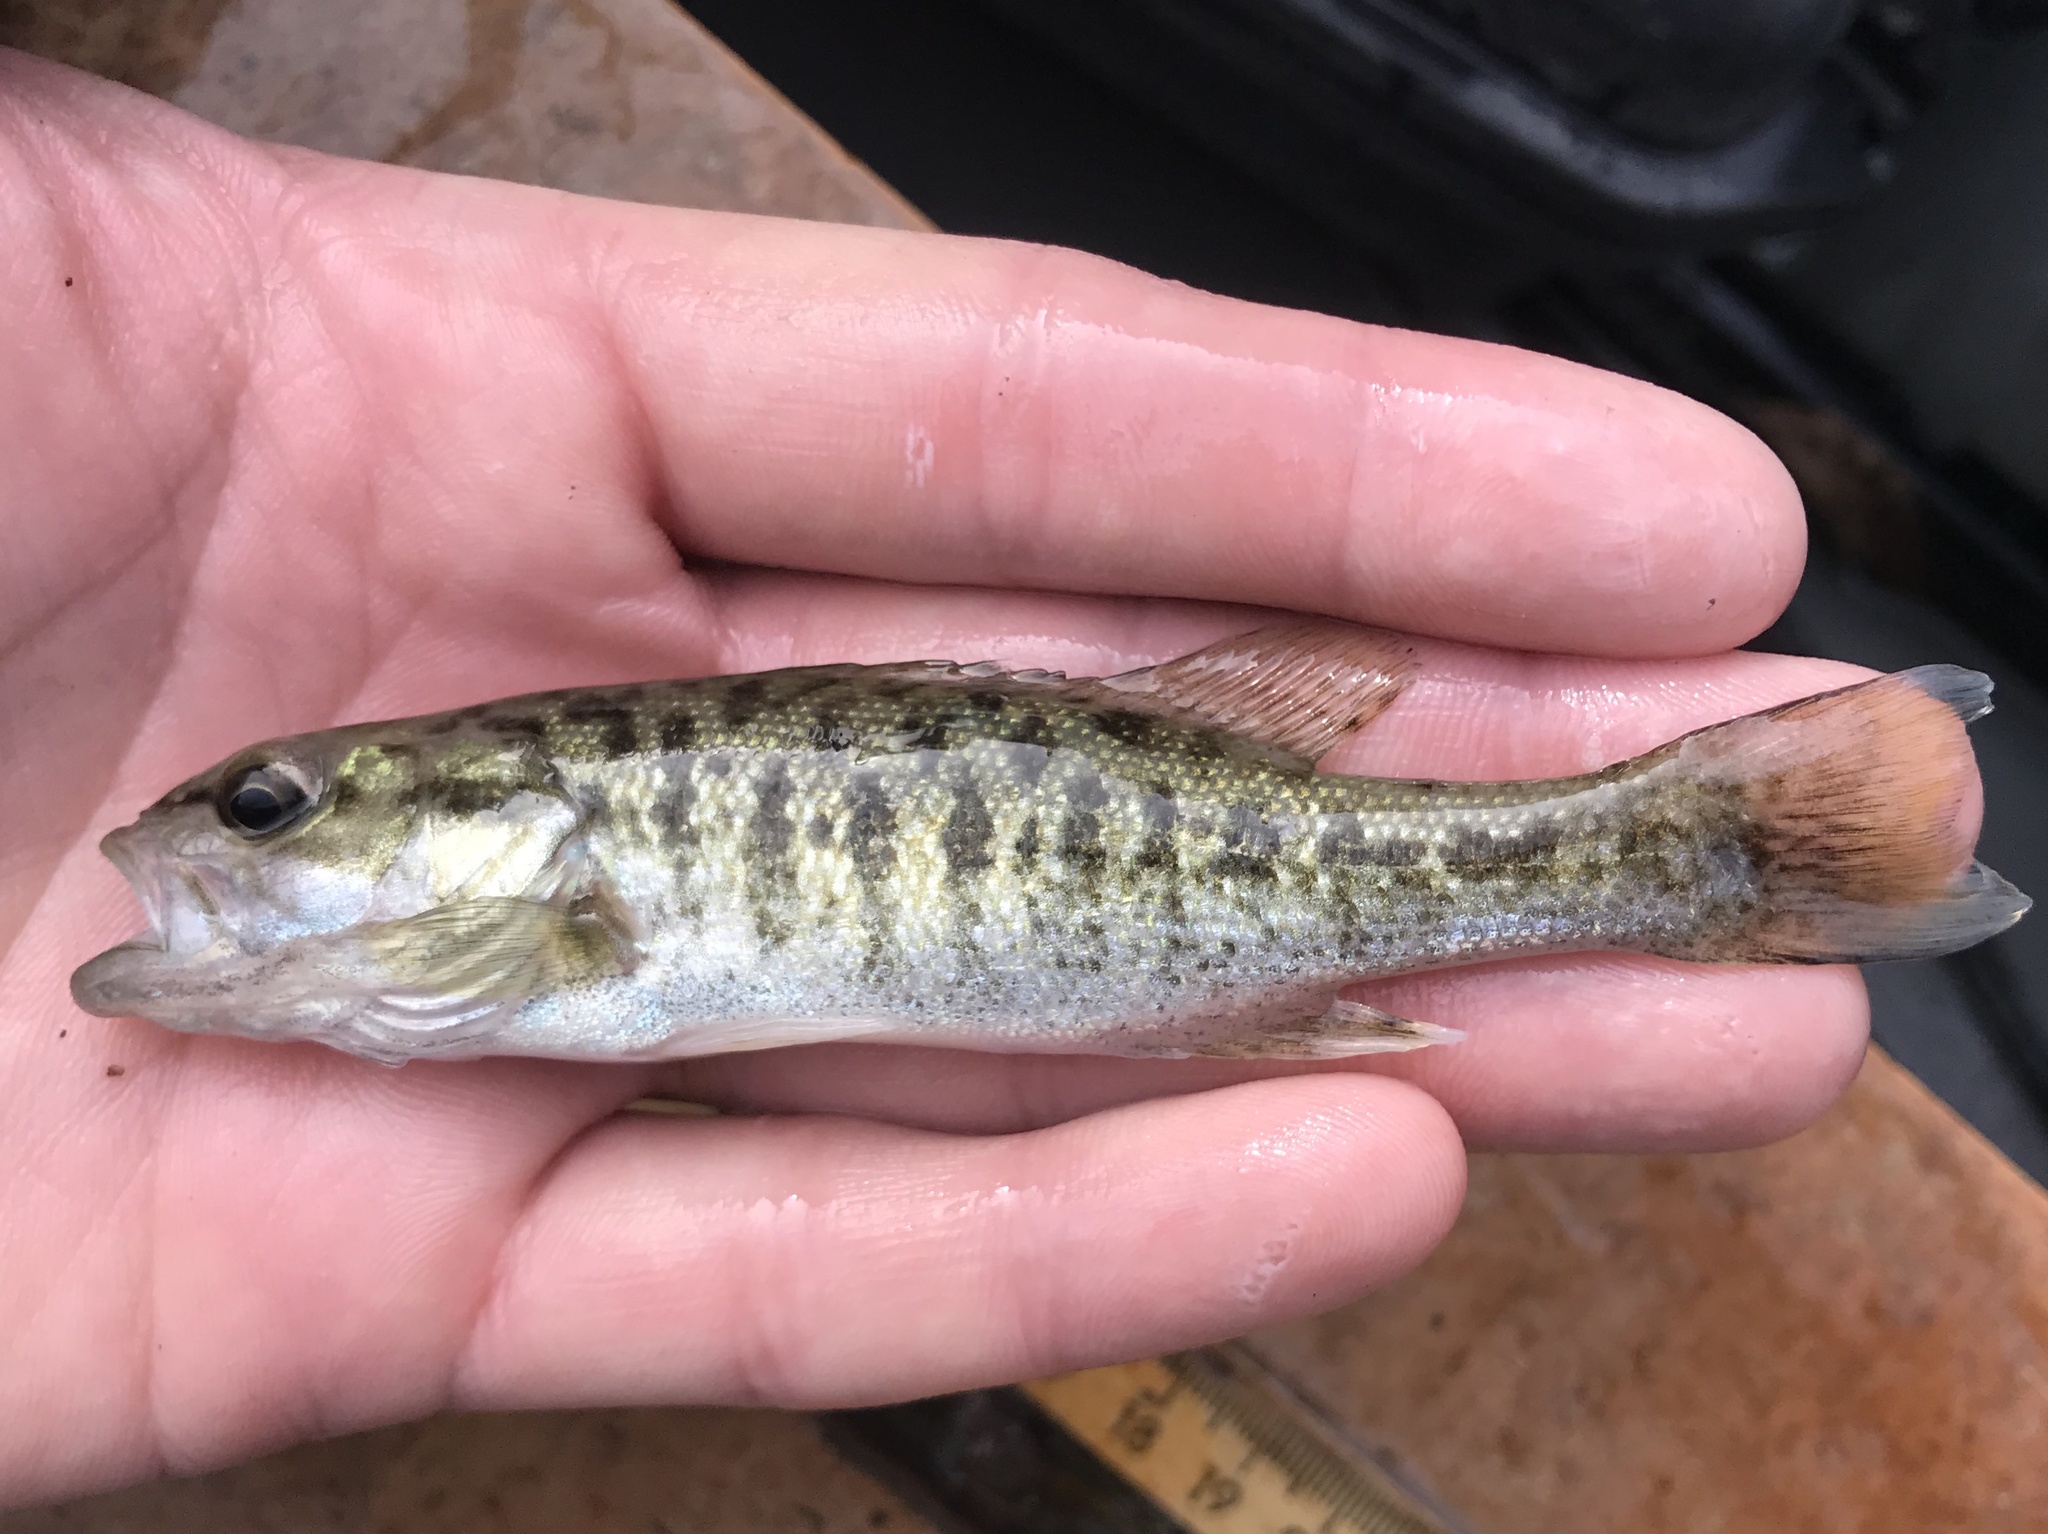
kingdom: Animalia
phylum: Chordata
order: Perciformes
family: Centrarchidae
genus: Micropterus
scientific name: Micropterus treculii
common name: Guadalupe bass
